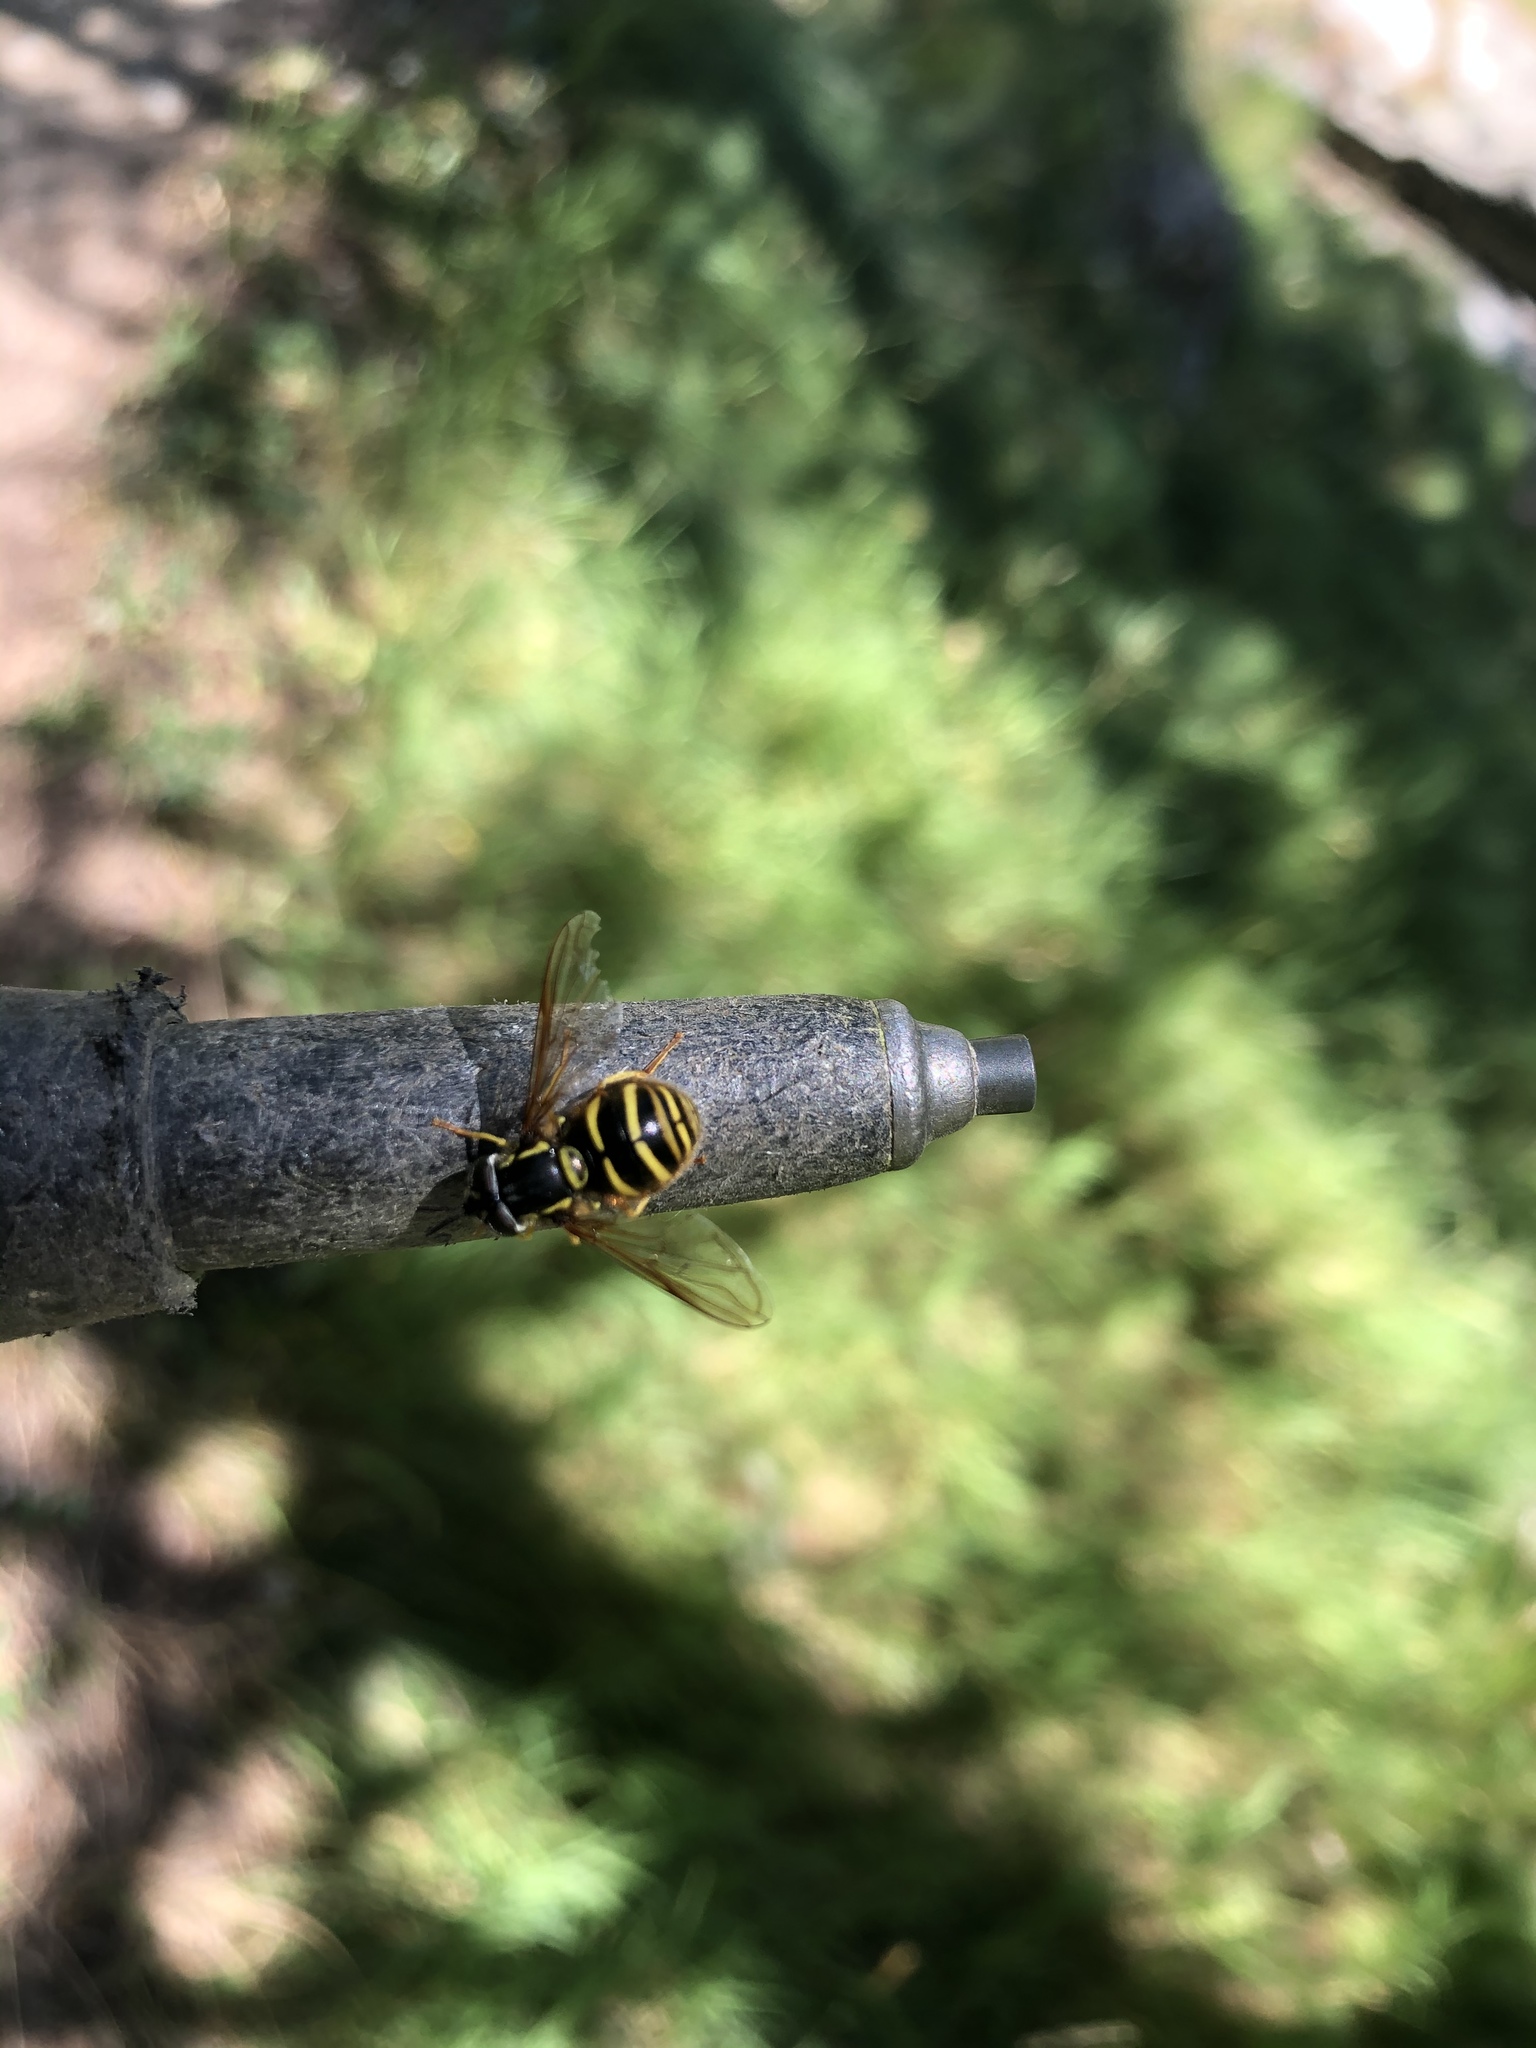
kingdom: Animalia
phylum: Arthropoda
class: Insecta
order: Diptera
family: Syrphidae
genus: Chrysotoxum
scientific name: Chrysotoxum
